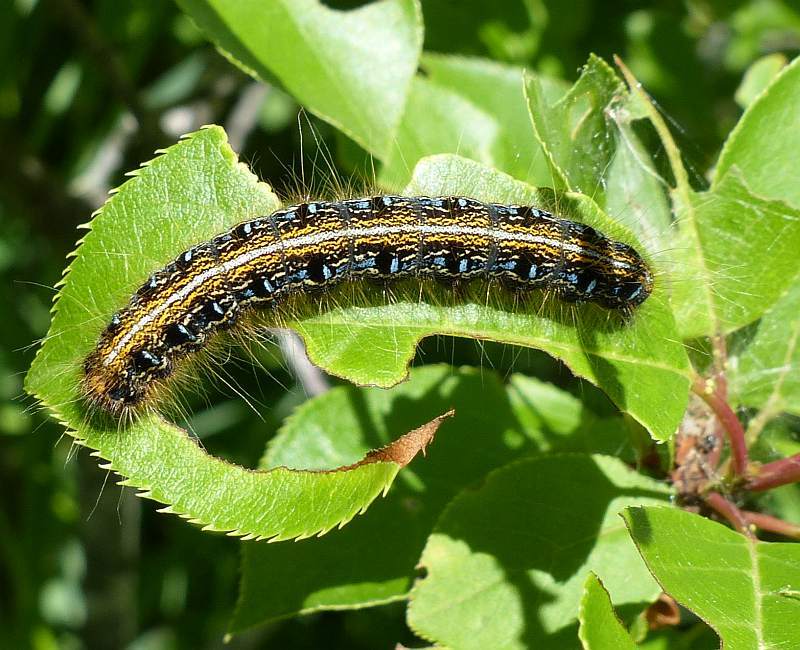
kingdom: Animalia
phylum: Arthropoda
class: Insecta
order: Lepidoptera
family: Lasiocampidae
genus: Malacosoma
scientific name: Malacosoma americana
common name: Eastern tent caterpillar moth
